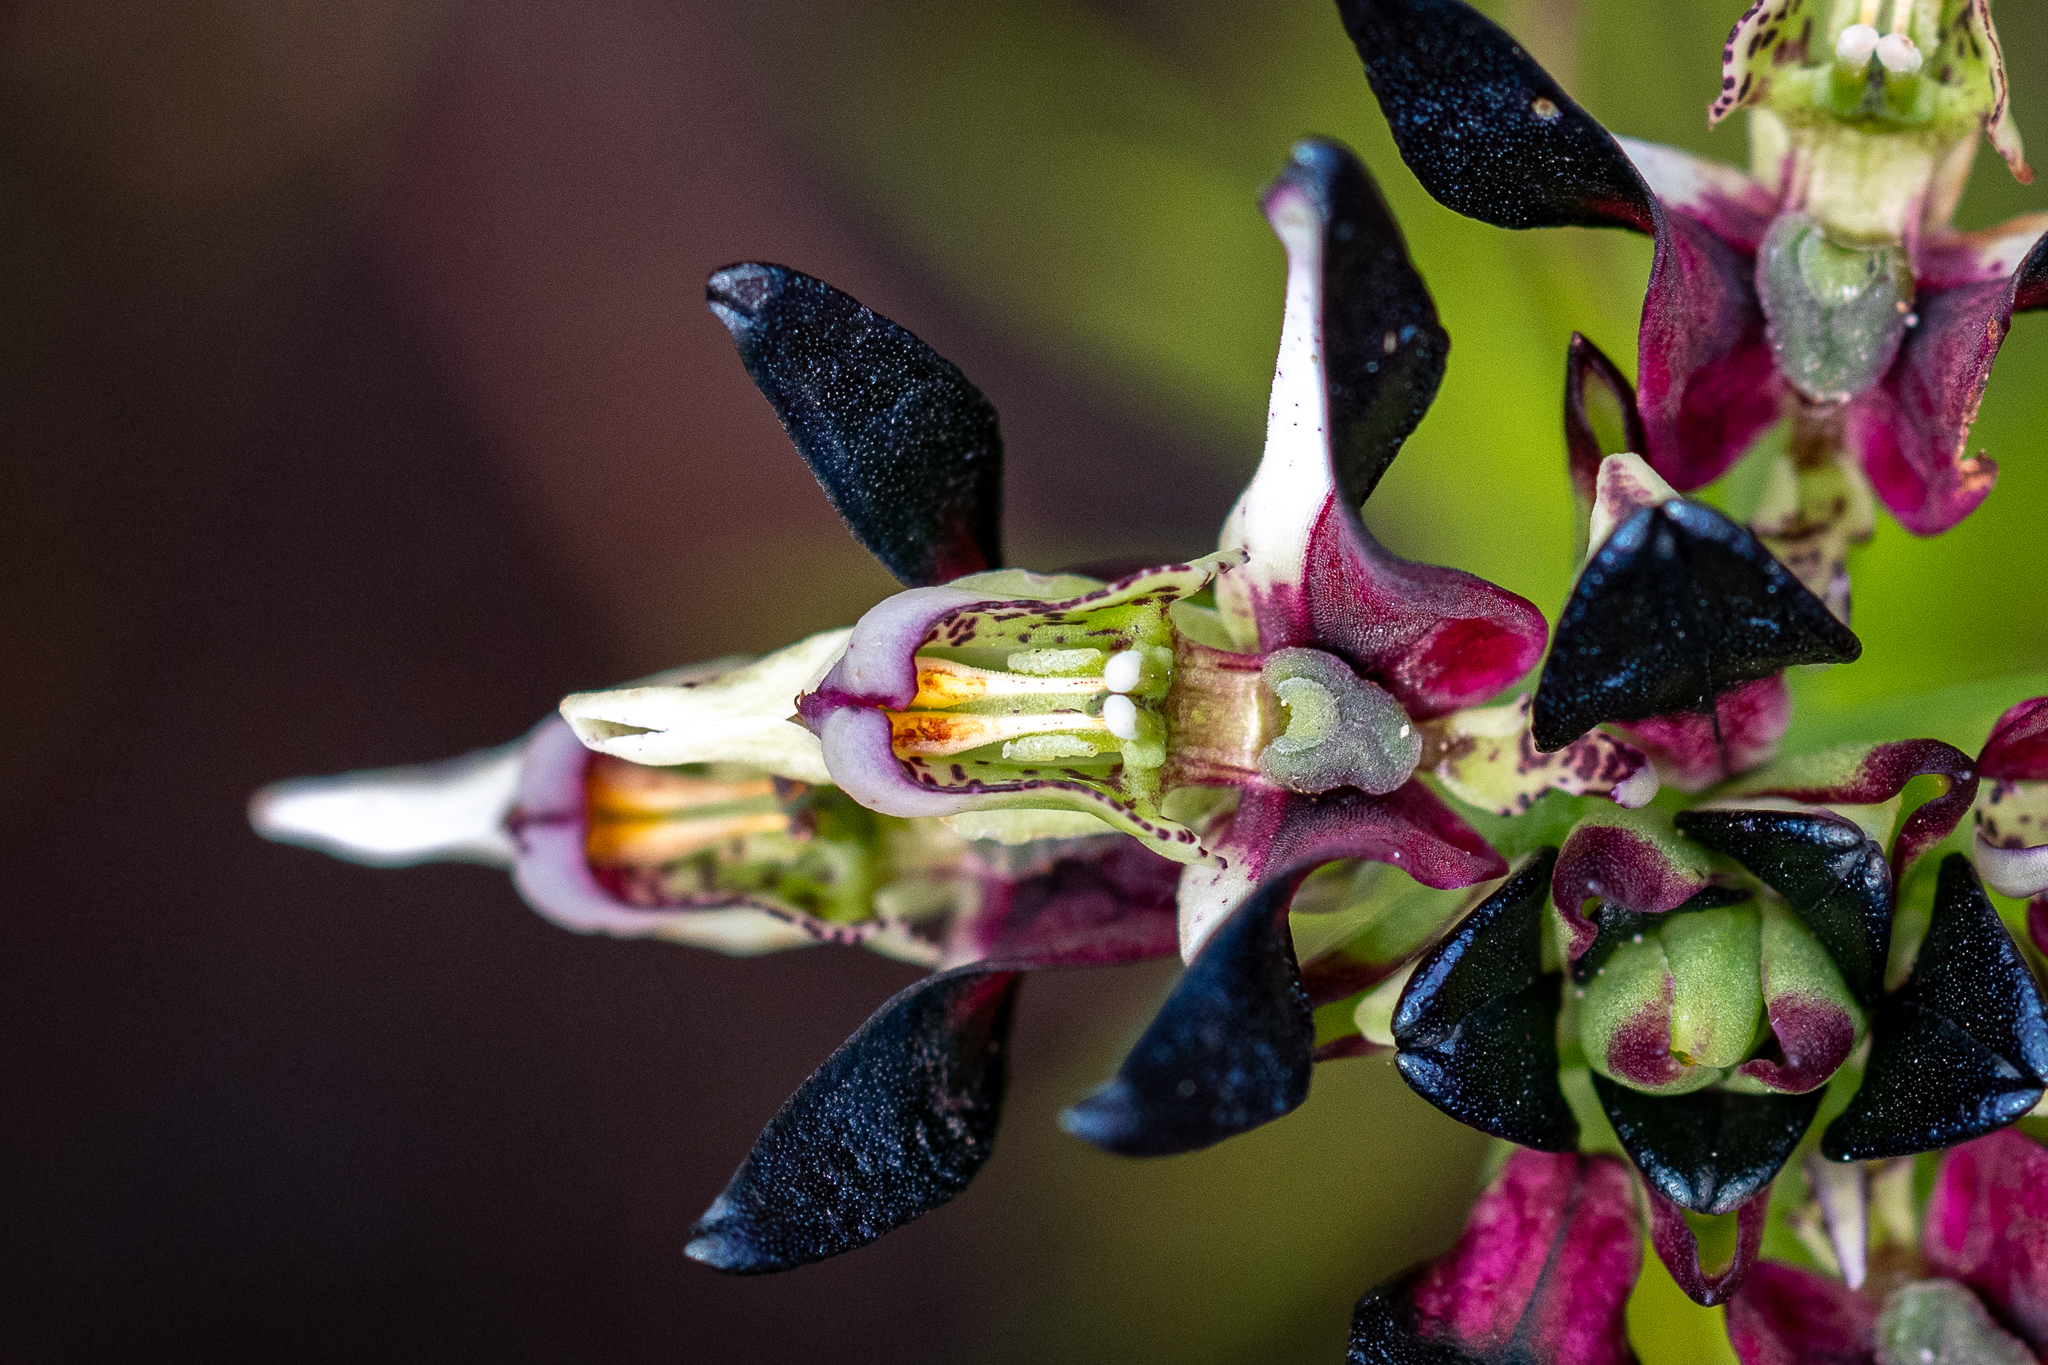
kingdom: Plantae
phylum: Tracheophyta
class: Liliopsida
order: Asparagales
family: Orchidaceae
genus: Disa
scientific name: Disa atricapilla
